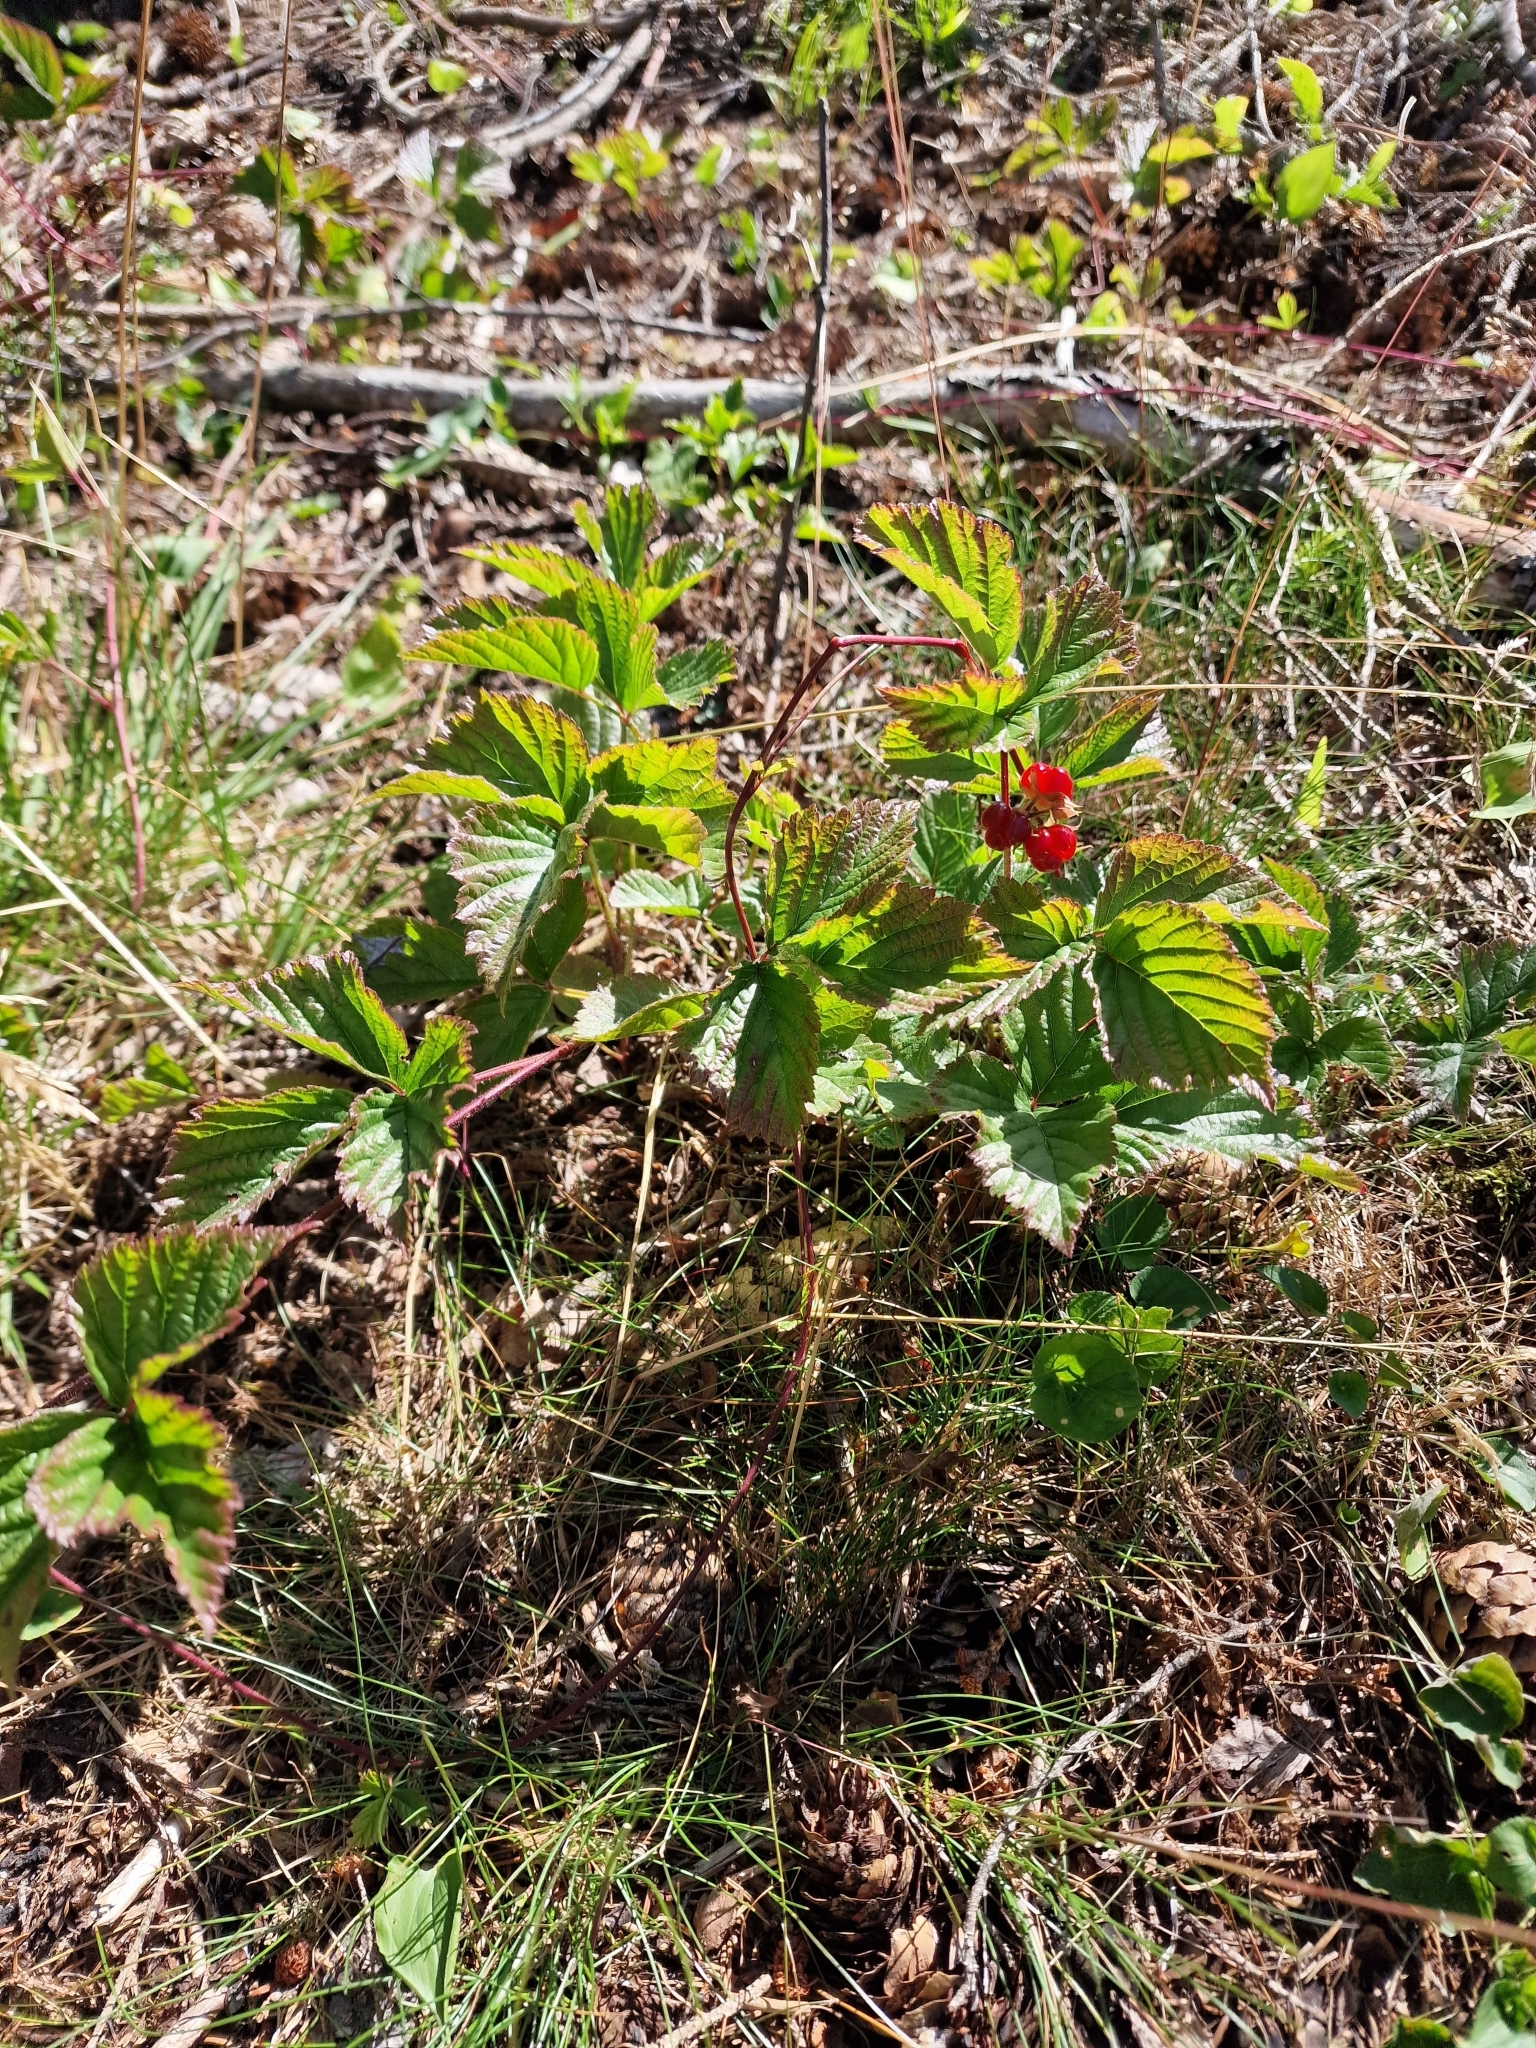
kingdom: Plantae
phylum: Tracheophyta
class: Magnoliopsida
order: Rosales
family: Rosaceae
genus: Rubus
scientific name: Rubus saxatilis
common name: Stone bramble
